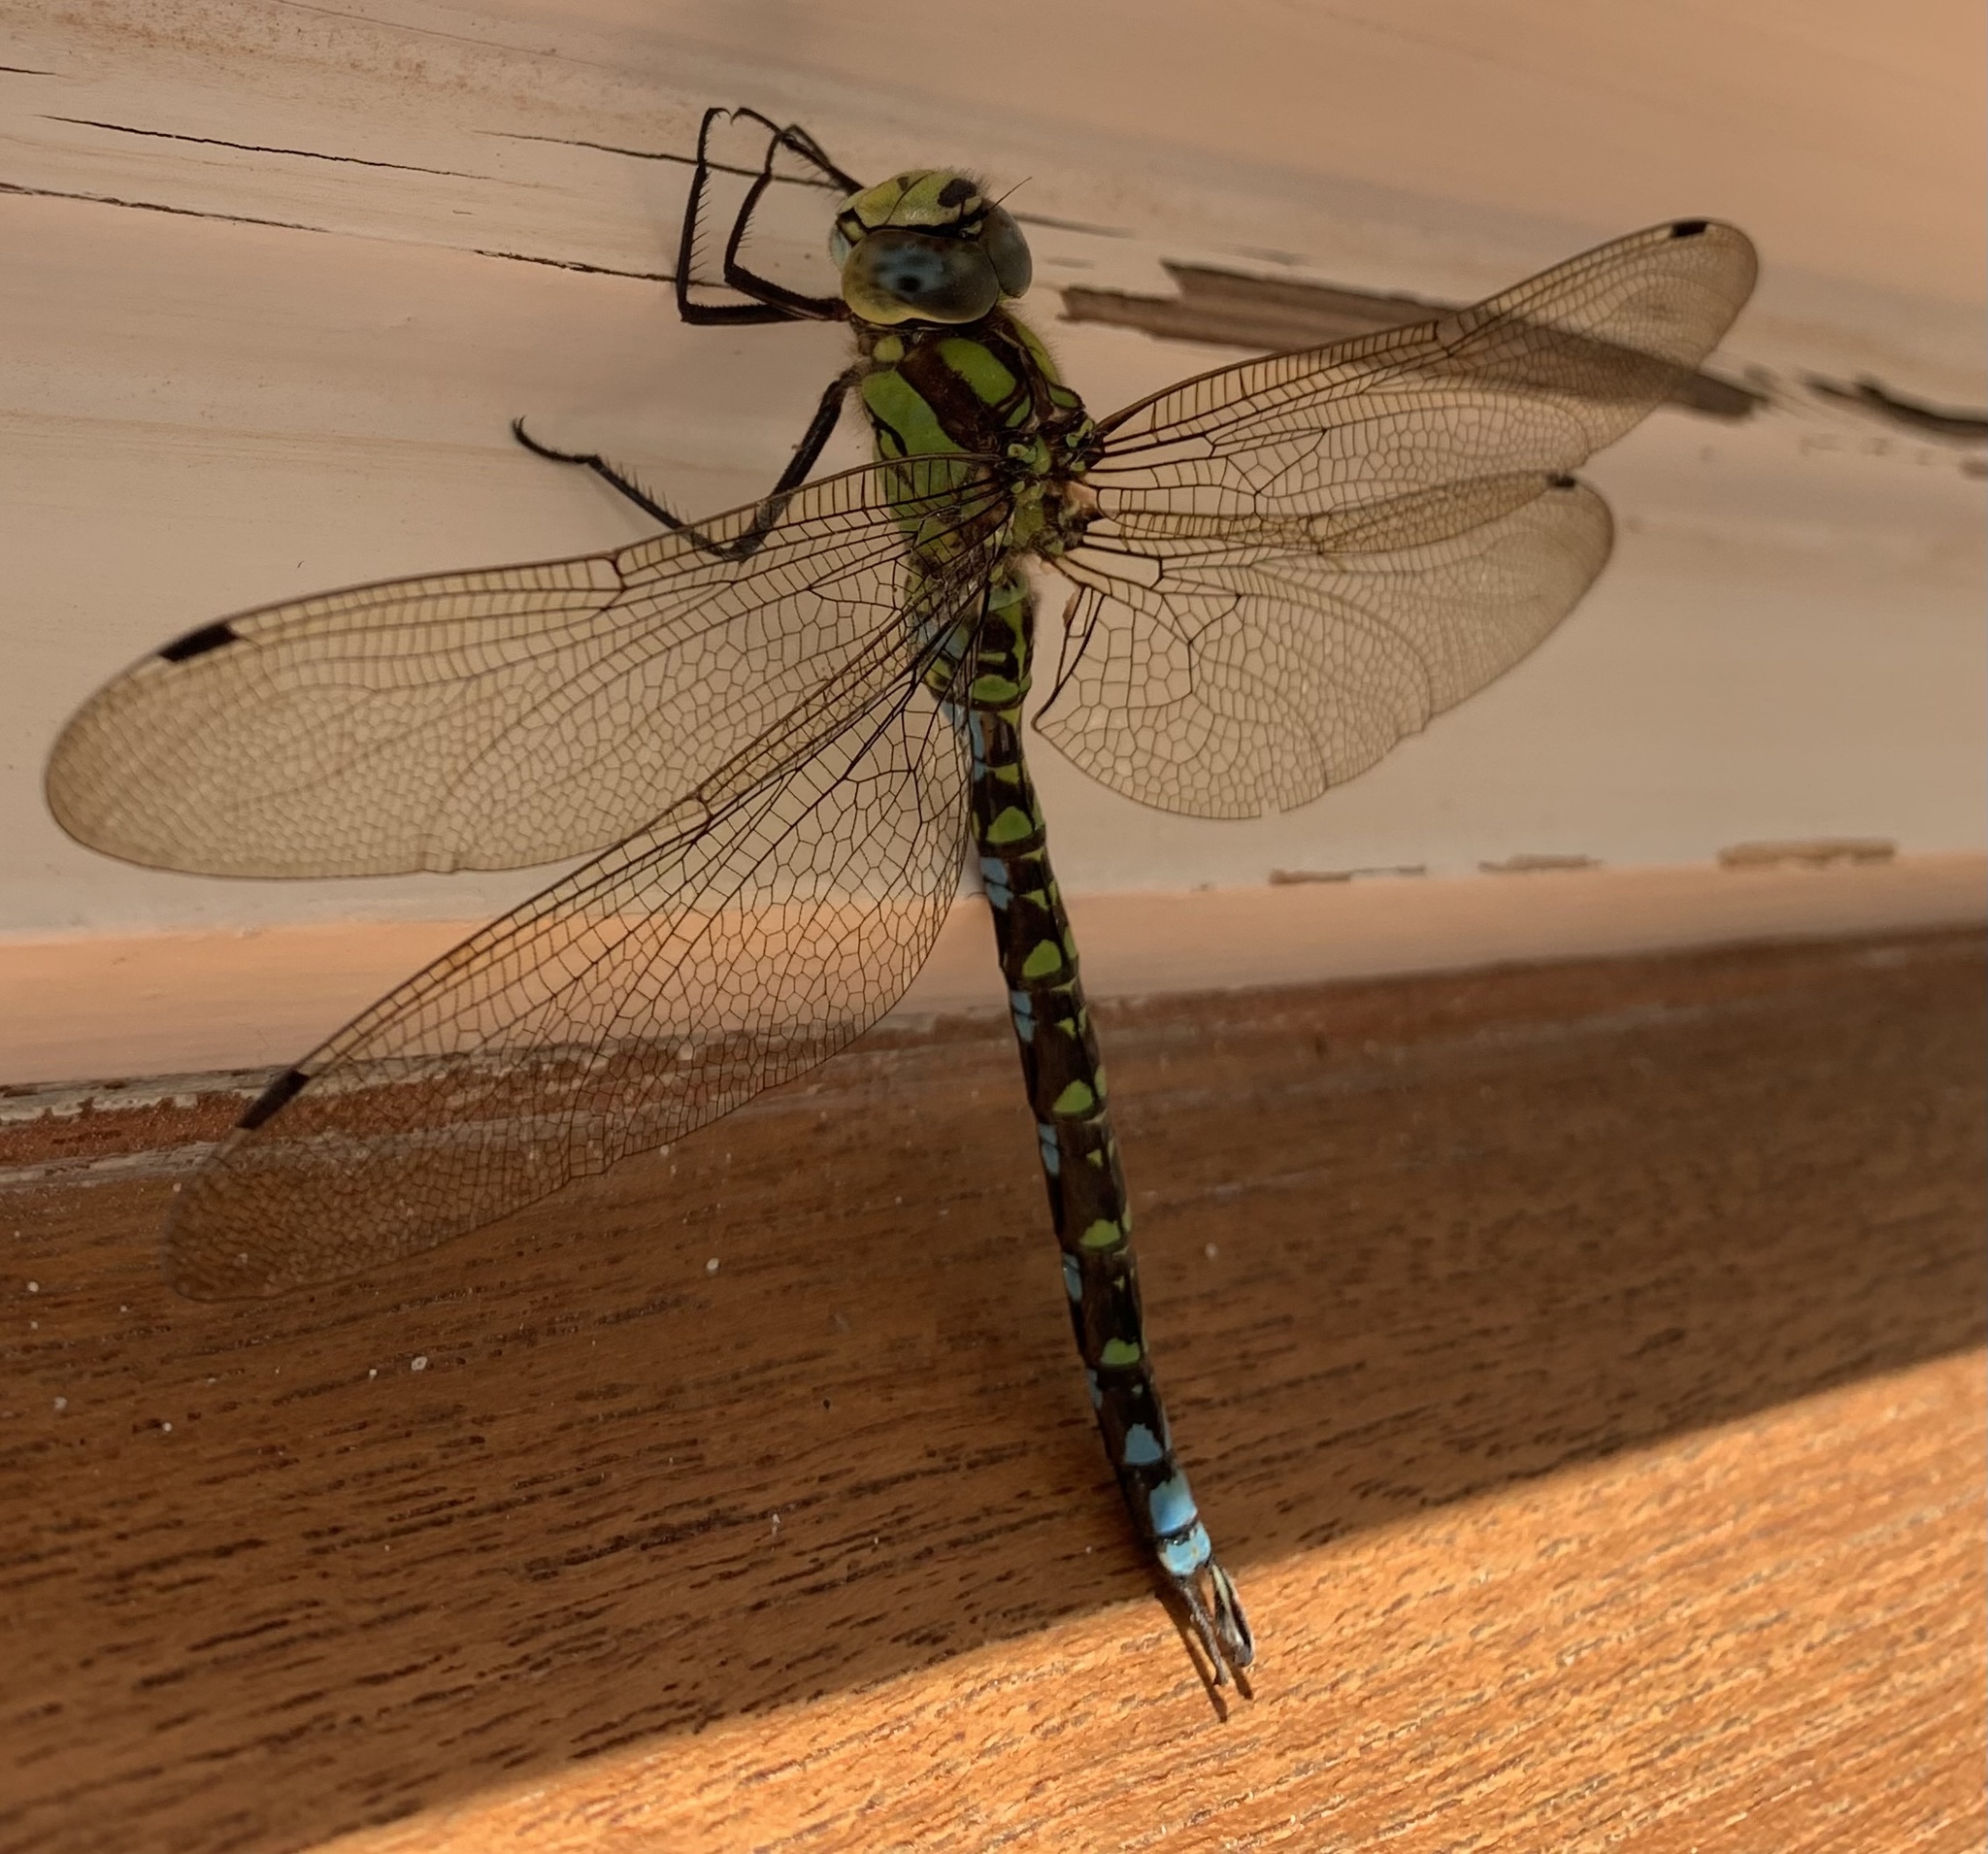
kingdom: Animalia
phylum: Arthropoda
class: Insecta
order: Odonata
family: Aeshnidae
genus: Aeshna
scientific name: Aeshna cyanea
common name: Southern hawker
